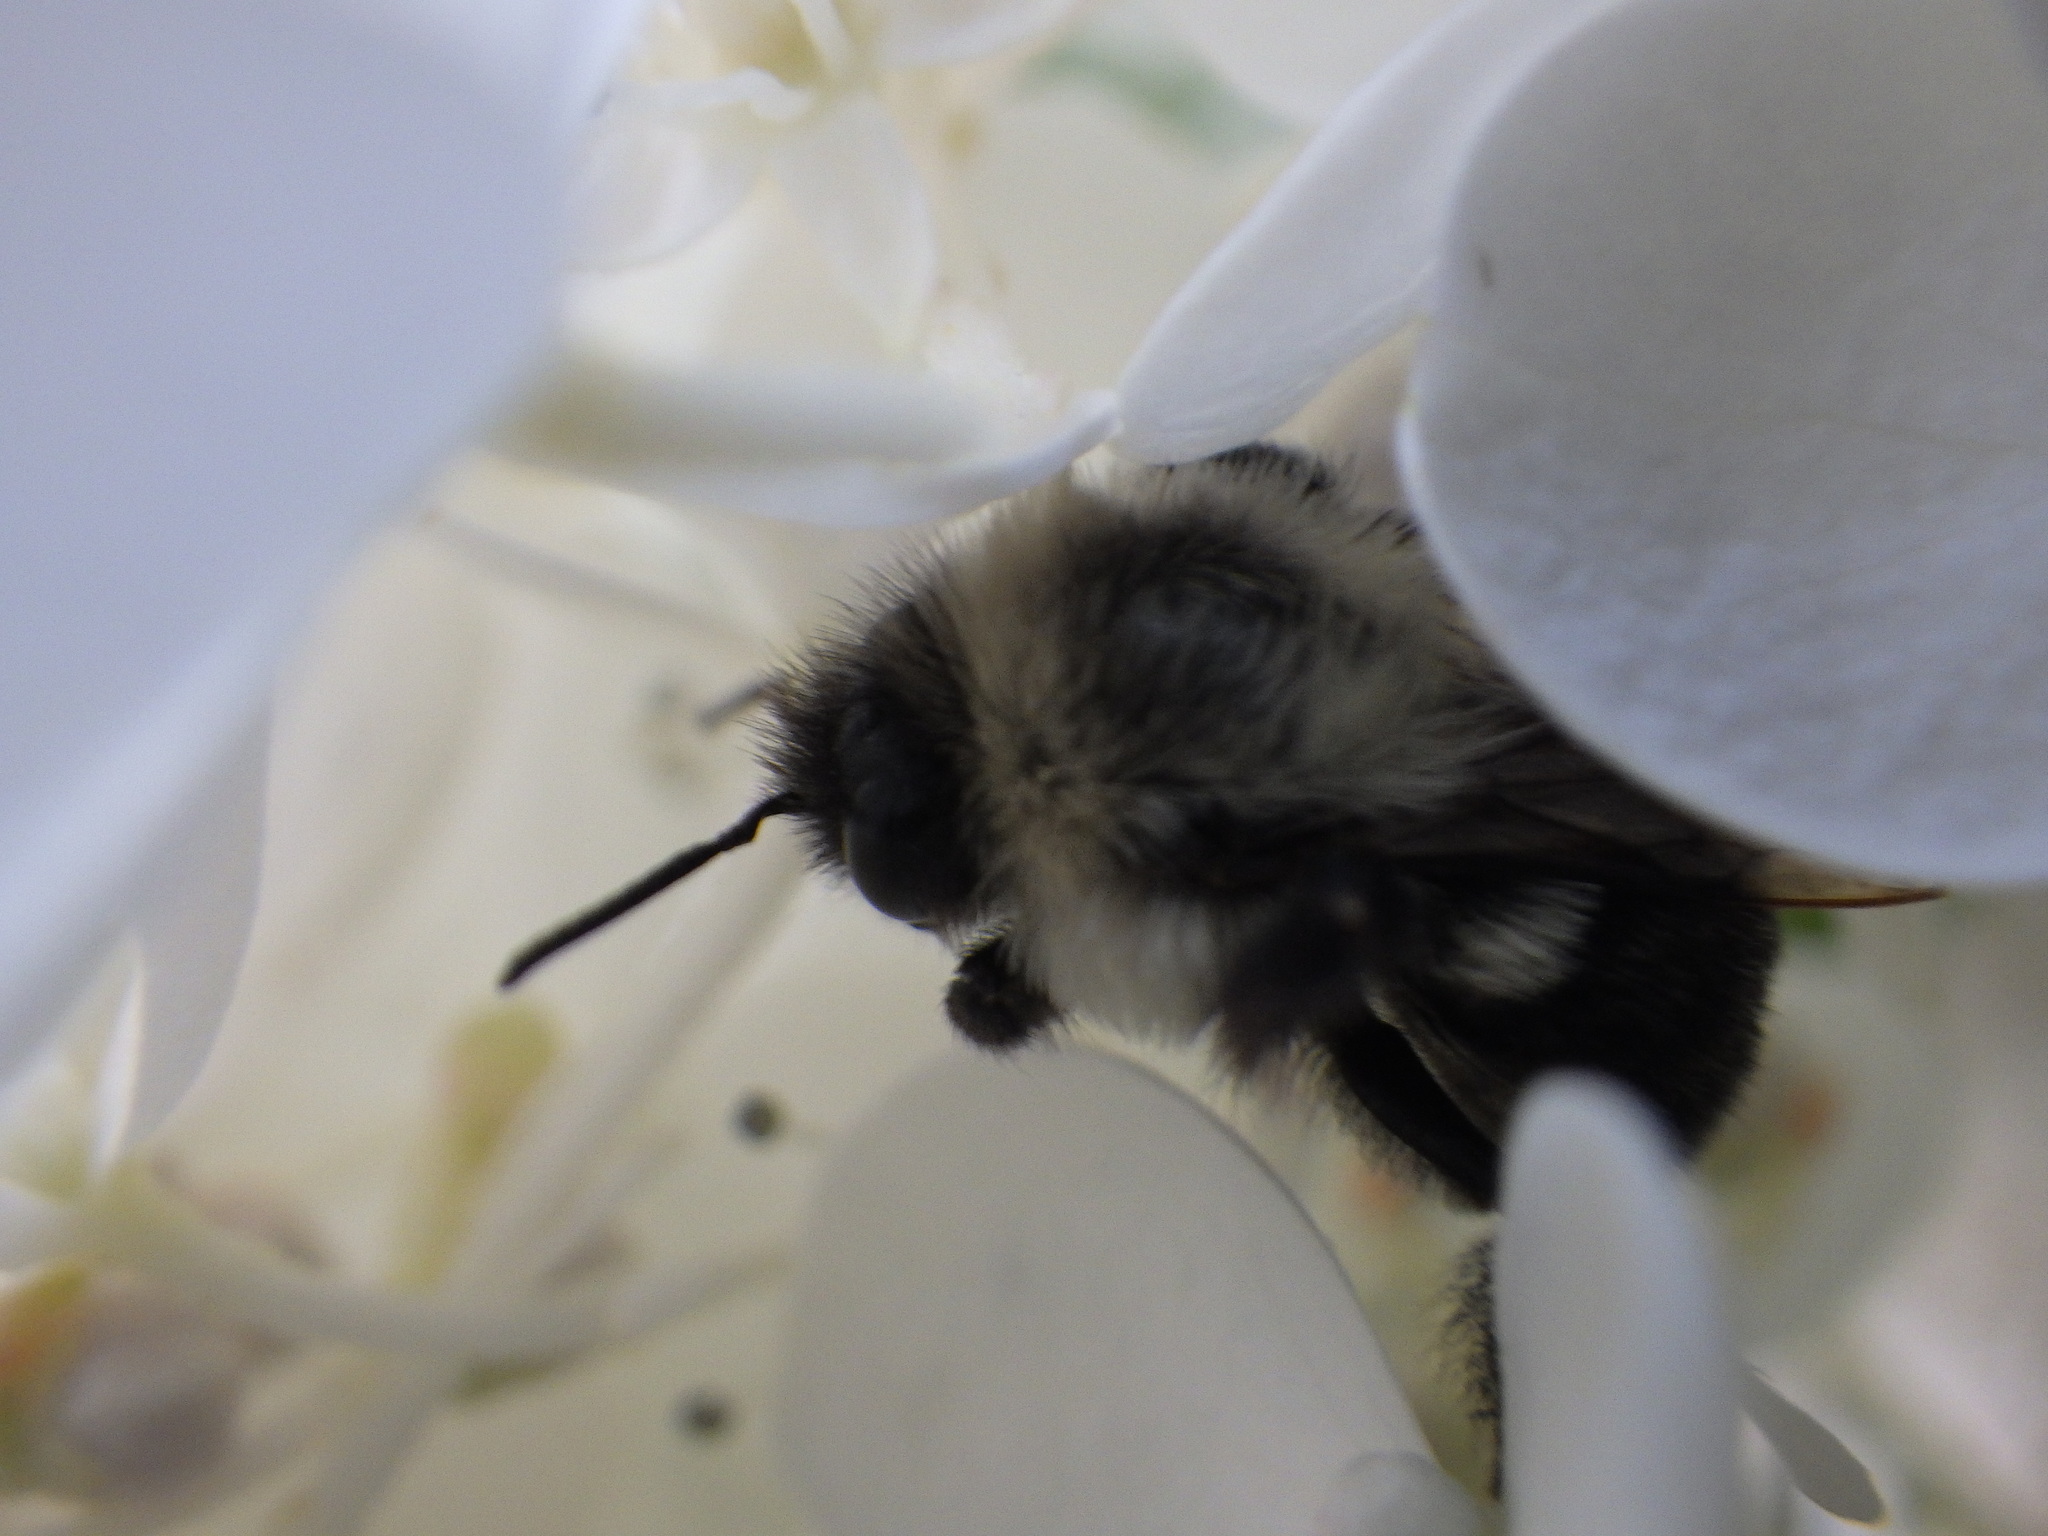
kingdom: Animalia
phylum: Arthropoda
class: Insecta
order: Hymenoptera
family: Apidae
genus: Bombus
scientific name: Bombus impatiens
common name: Common eastern bumble bee
